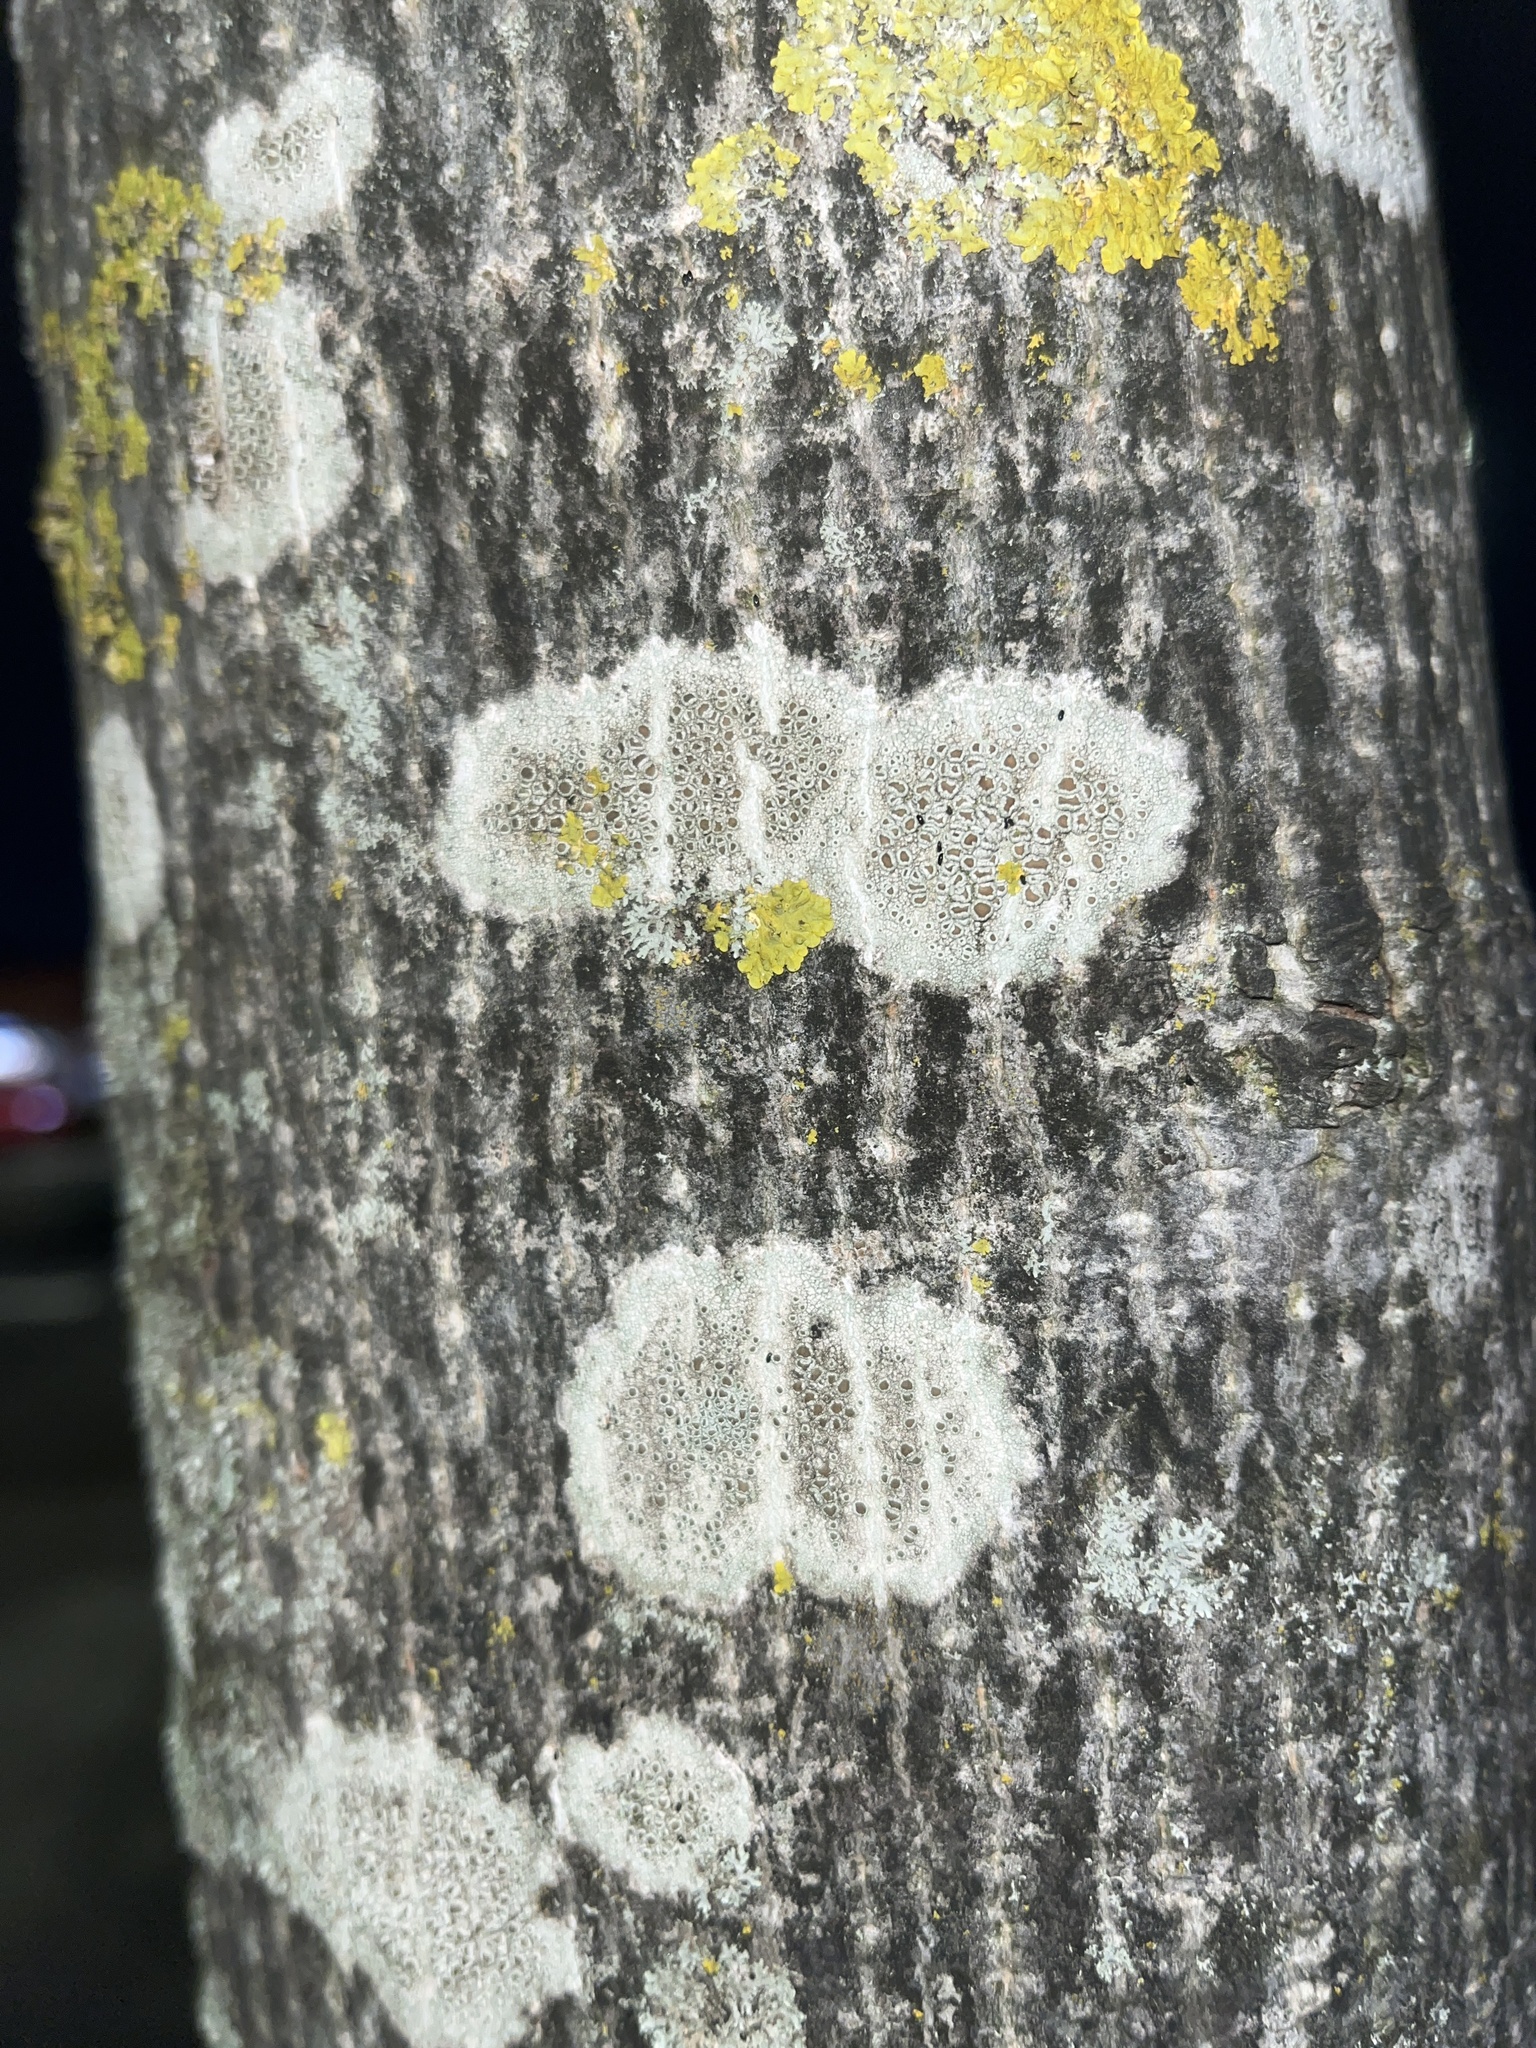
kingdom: Fungi
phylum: Ascomycota
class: Lecanoromycetes
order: Lecanorales
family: Lecanoraceae
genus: Lecanora
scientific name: Lecanora chlarotera
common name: Brown rim-lichen
